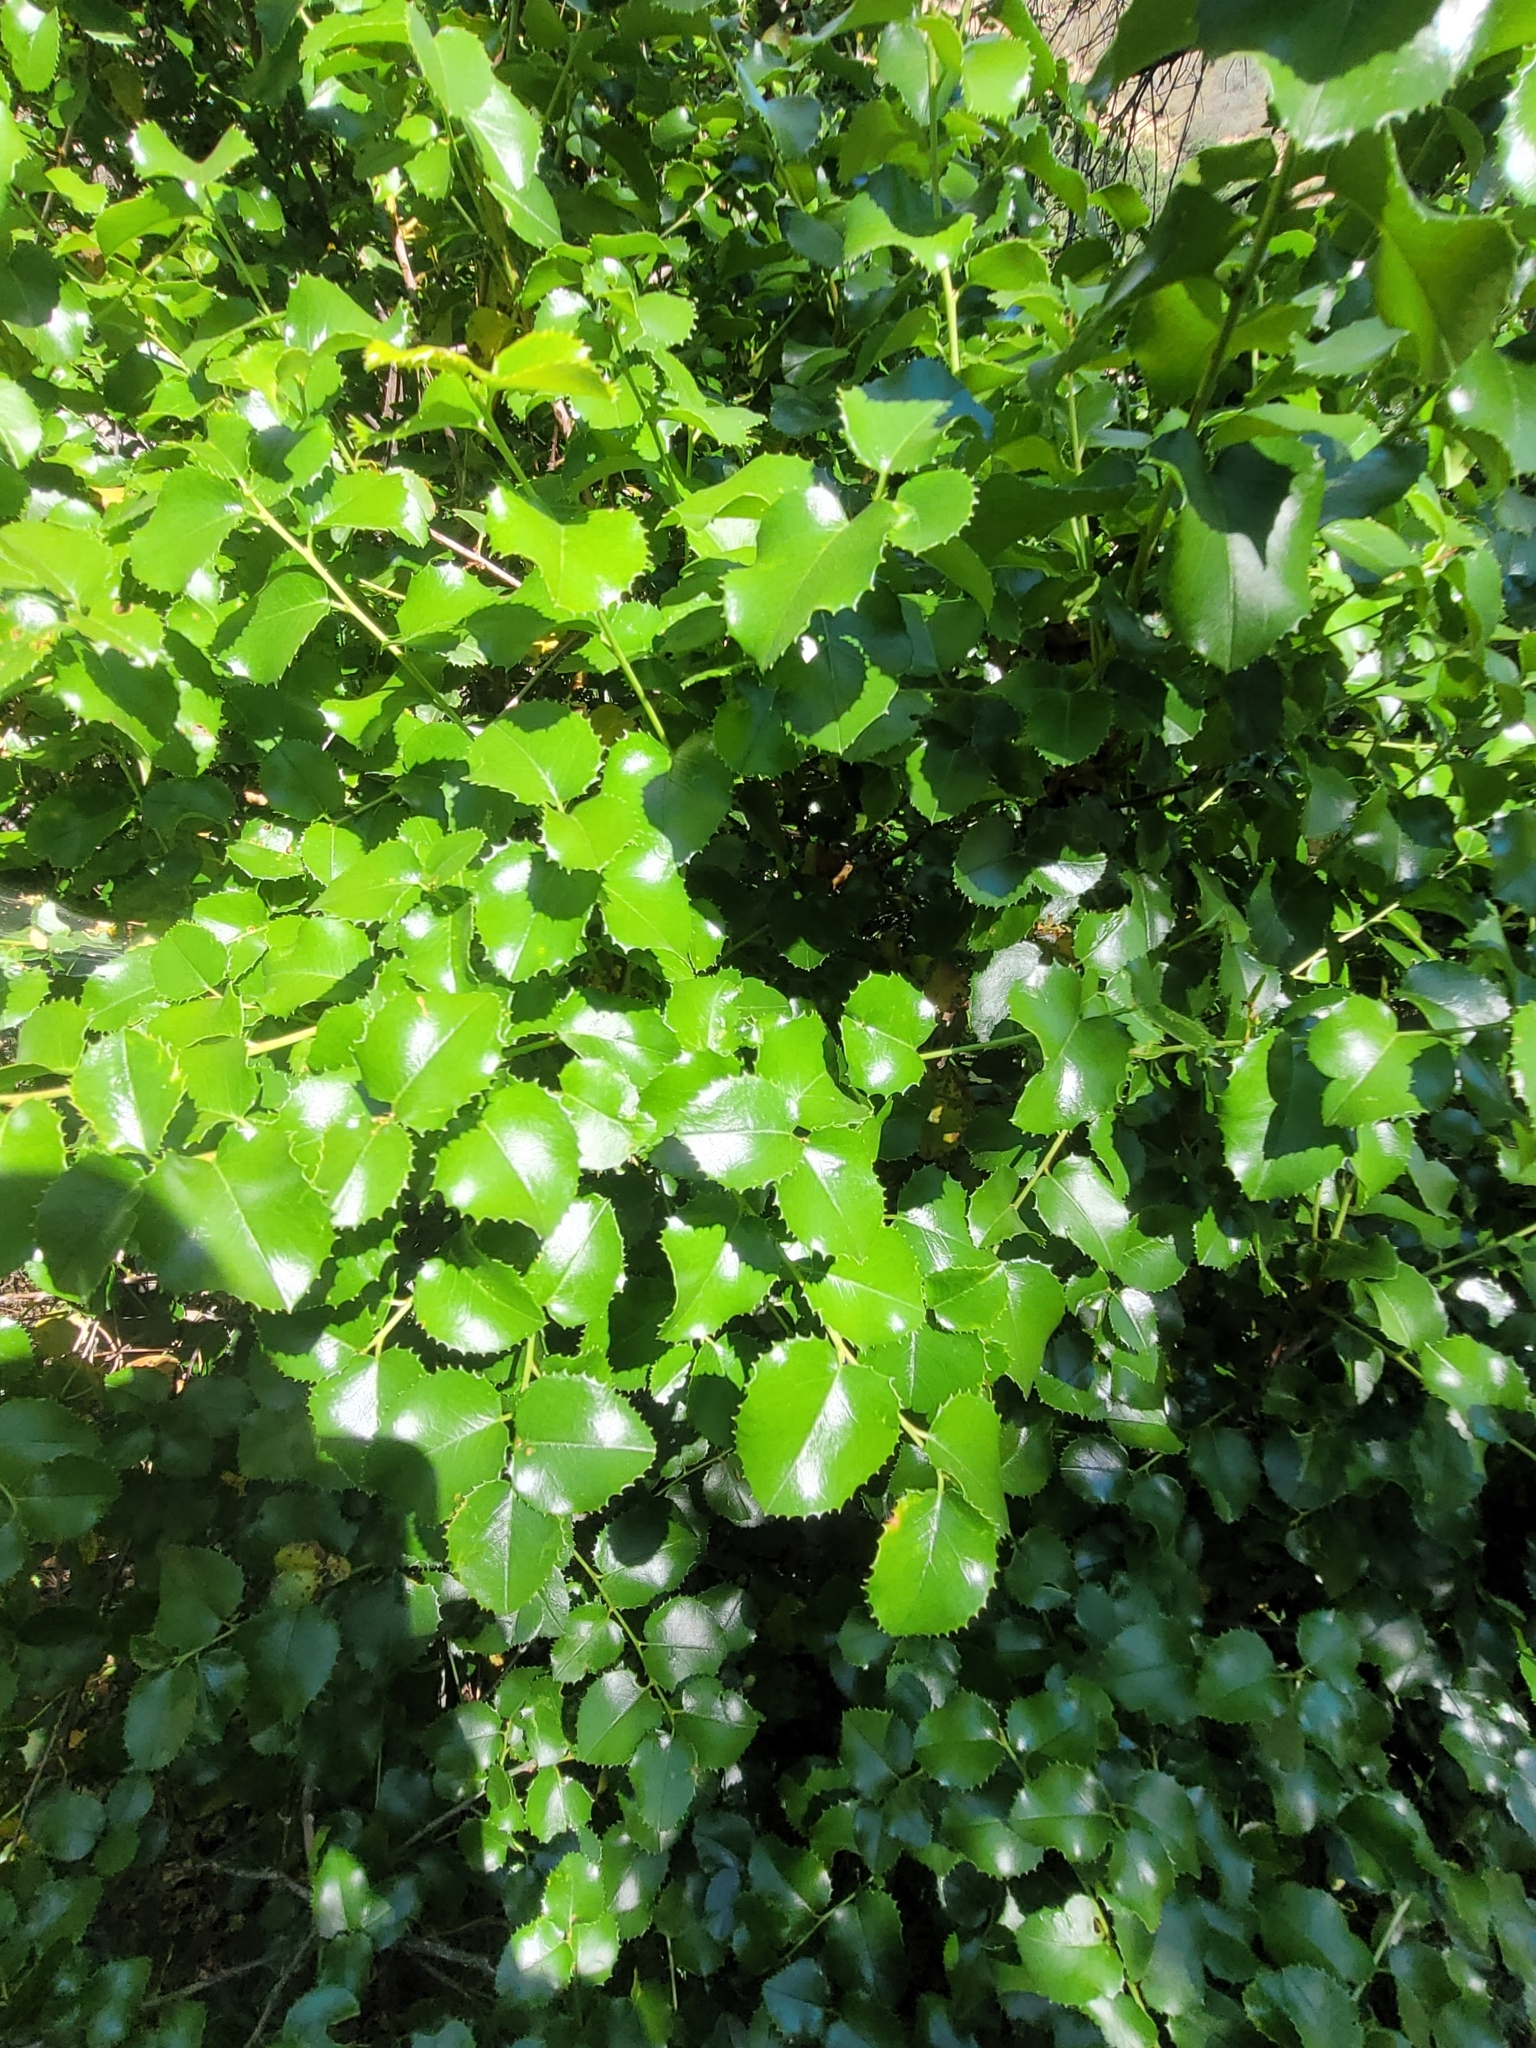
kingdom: Plantae
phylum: Tracheophyta
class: Magnoliopsida
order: Rosales
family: Rosaceae
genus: Prunus
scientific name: Prunus ilicifolia
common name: Hollyleaf cherry
